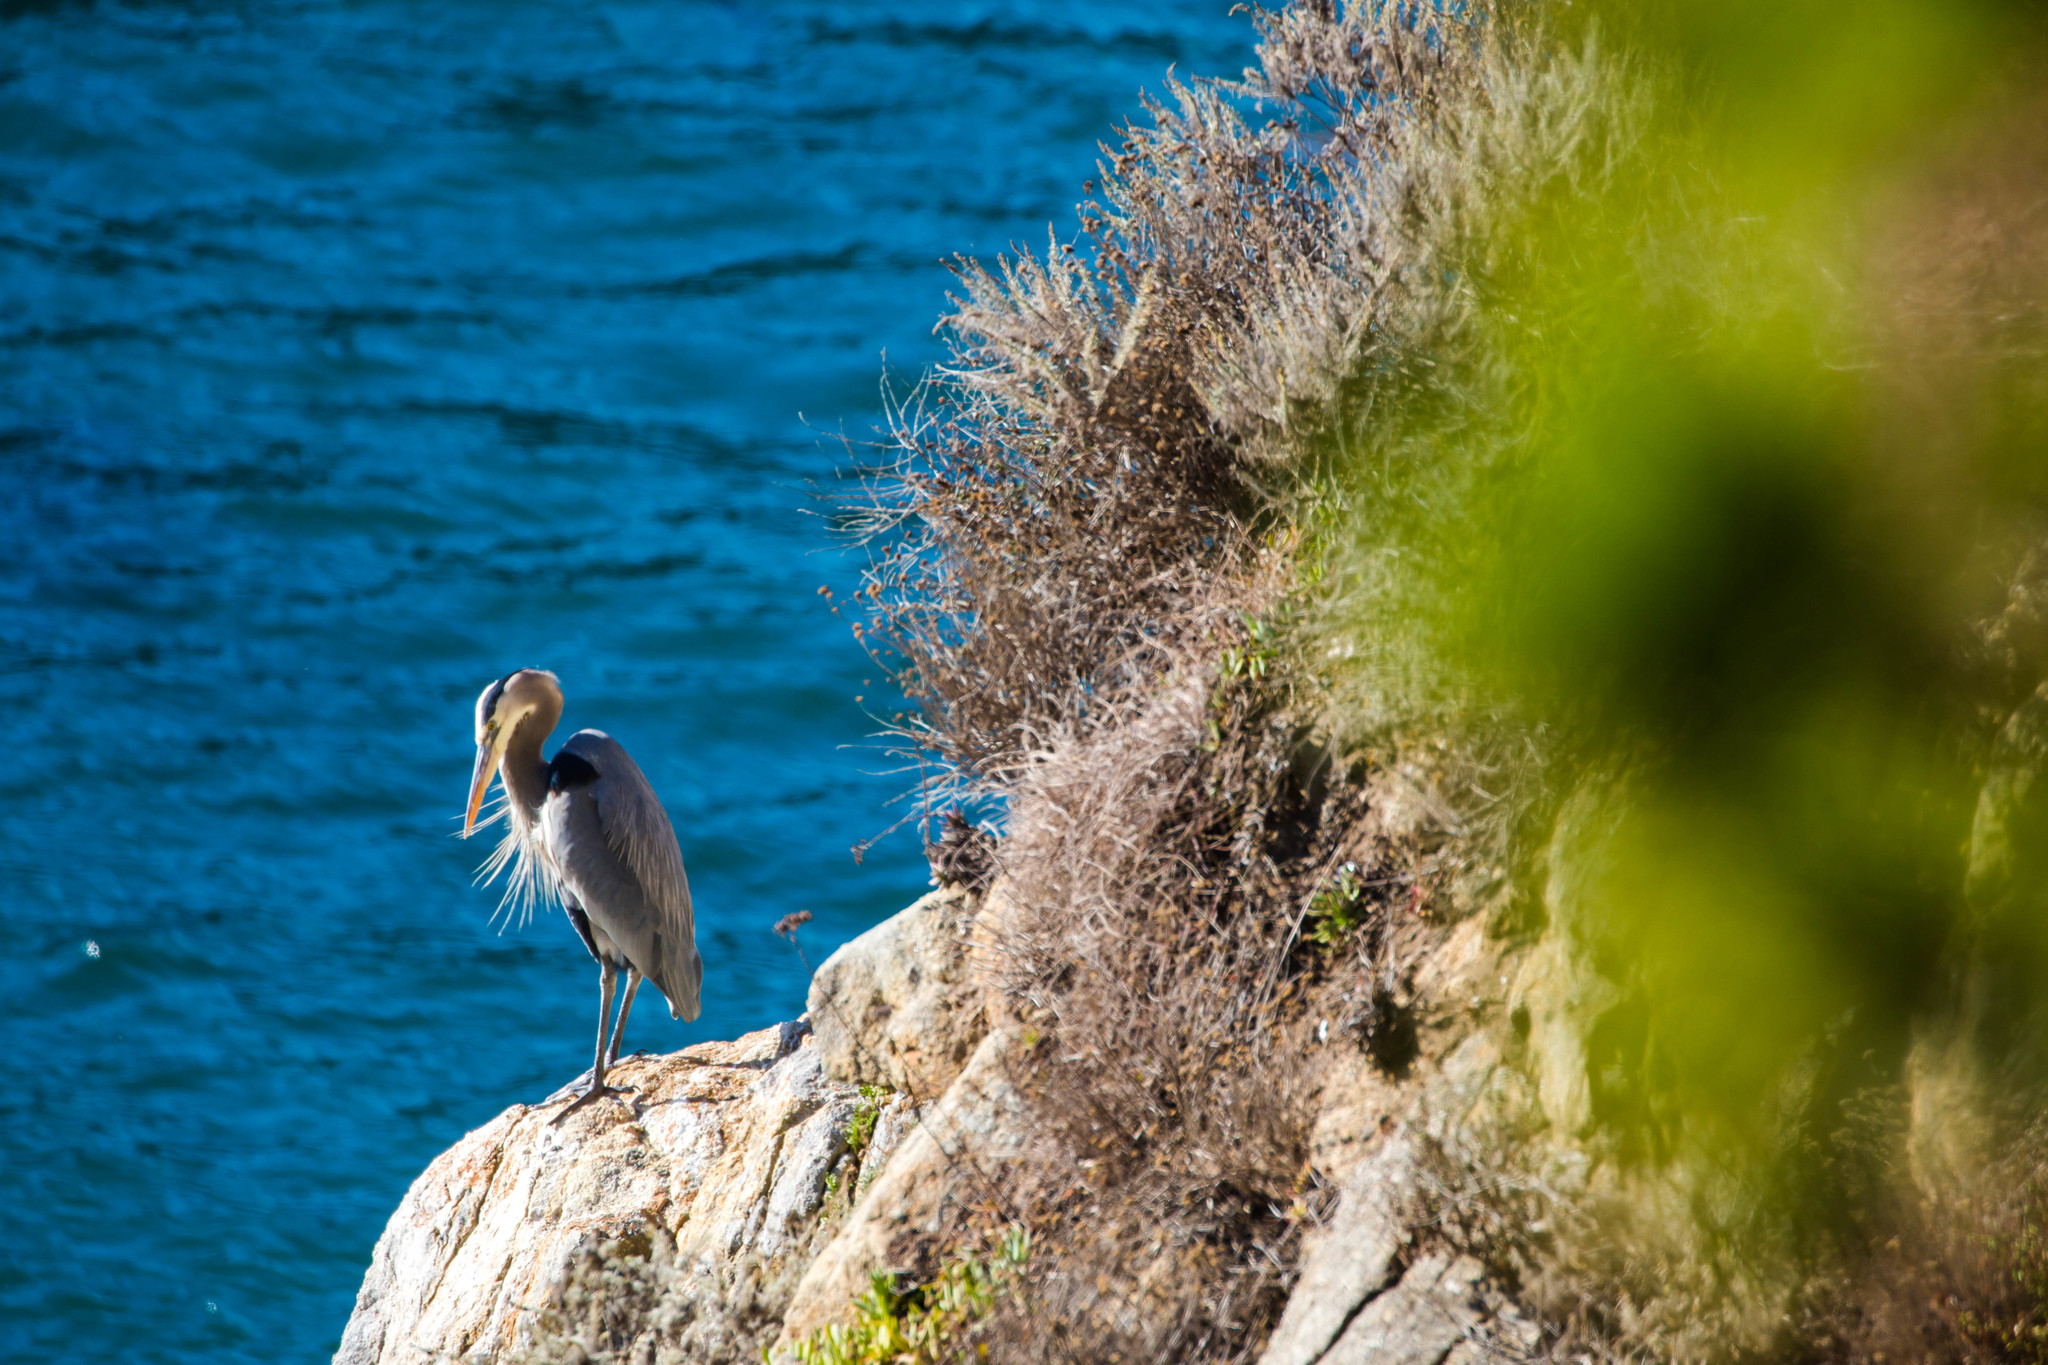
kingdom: Animalia
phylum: Chordata
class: Aves
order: Pelecaniformes
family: Ardeidae
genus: Ardea
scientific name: Ardea herodias
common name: Great blue heron
